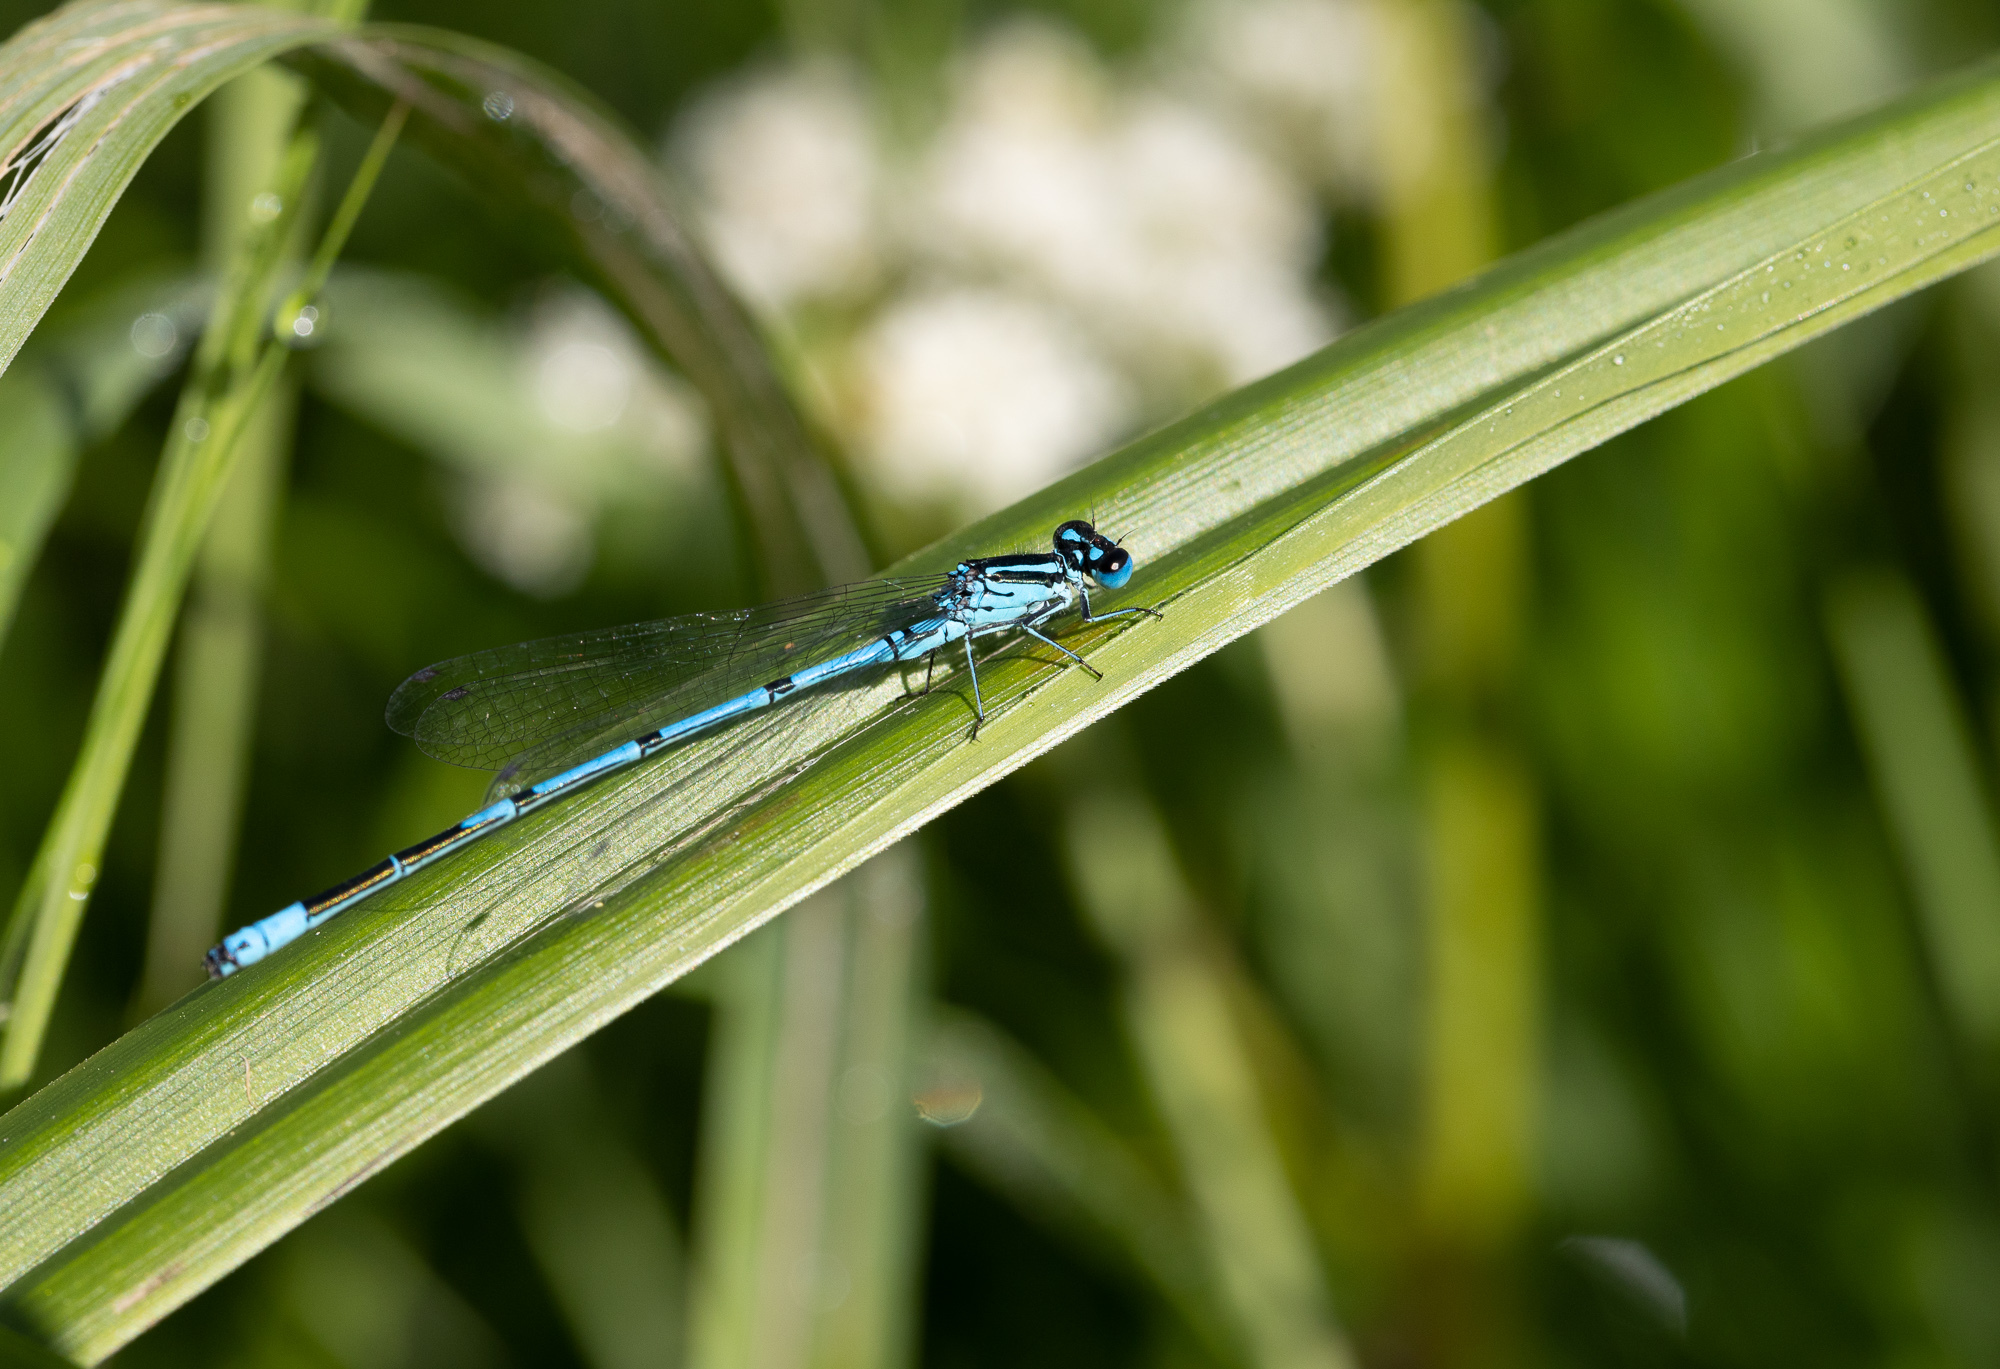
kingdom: Animalia
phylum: Arthropoda
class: Insecta
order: Odonata
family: Coenagrionidae
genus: Coenagrion
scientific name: Coenagrion puella
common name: Azure damselfly
